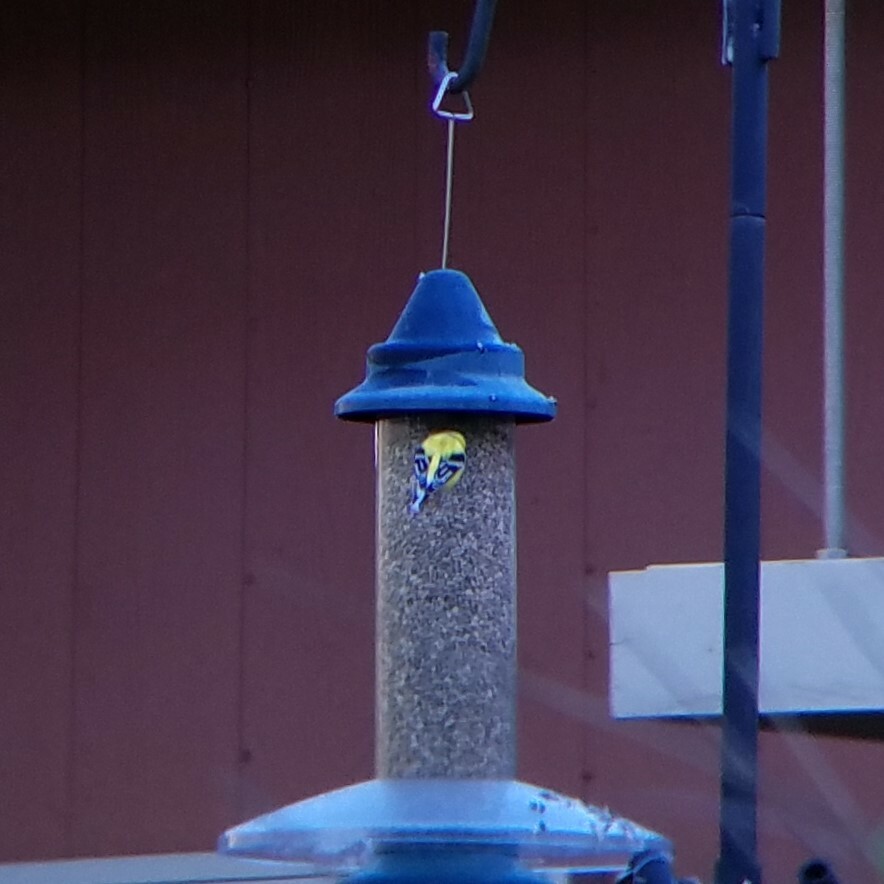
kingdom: Animalia
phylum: Chordata
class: Aves
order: Passeriformes
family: Fringillidae
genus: Spinus
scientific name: Spinus tristis
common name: American goldfinch
